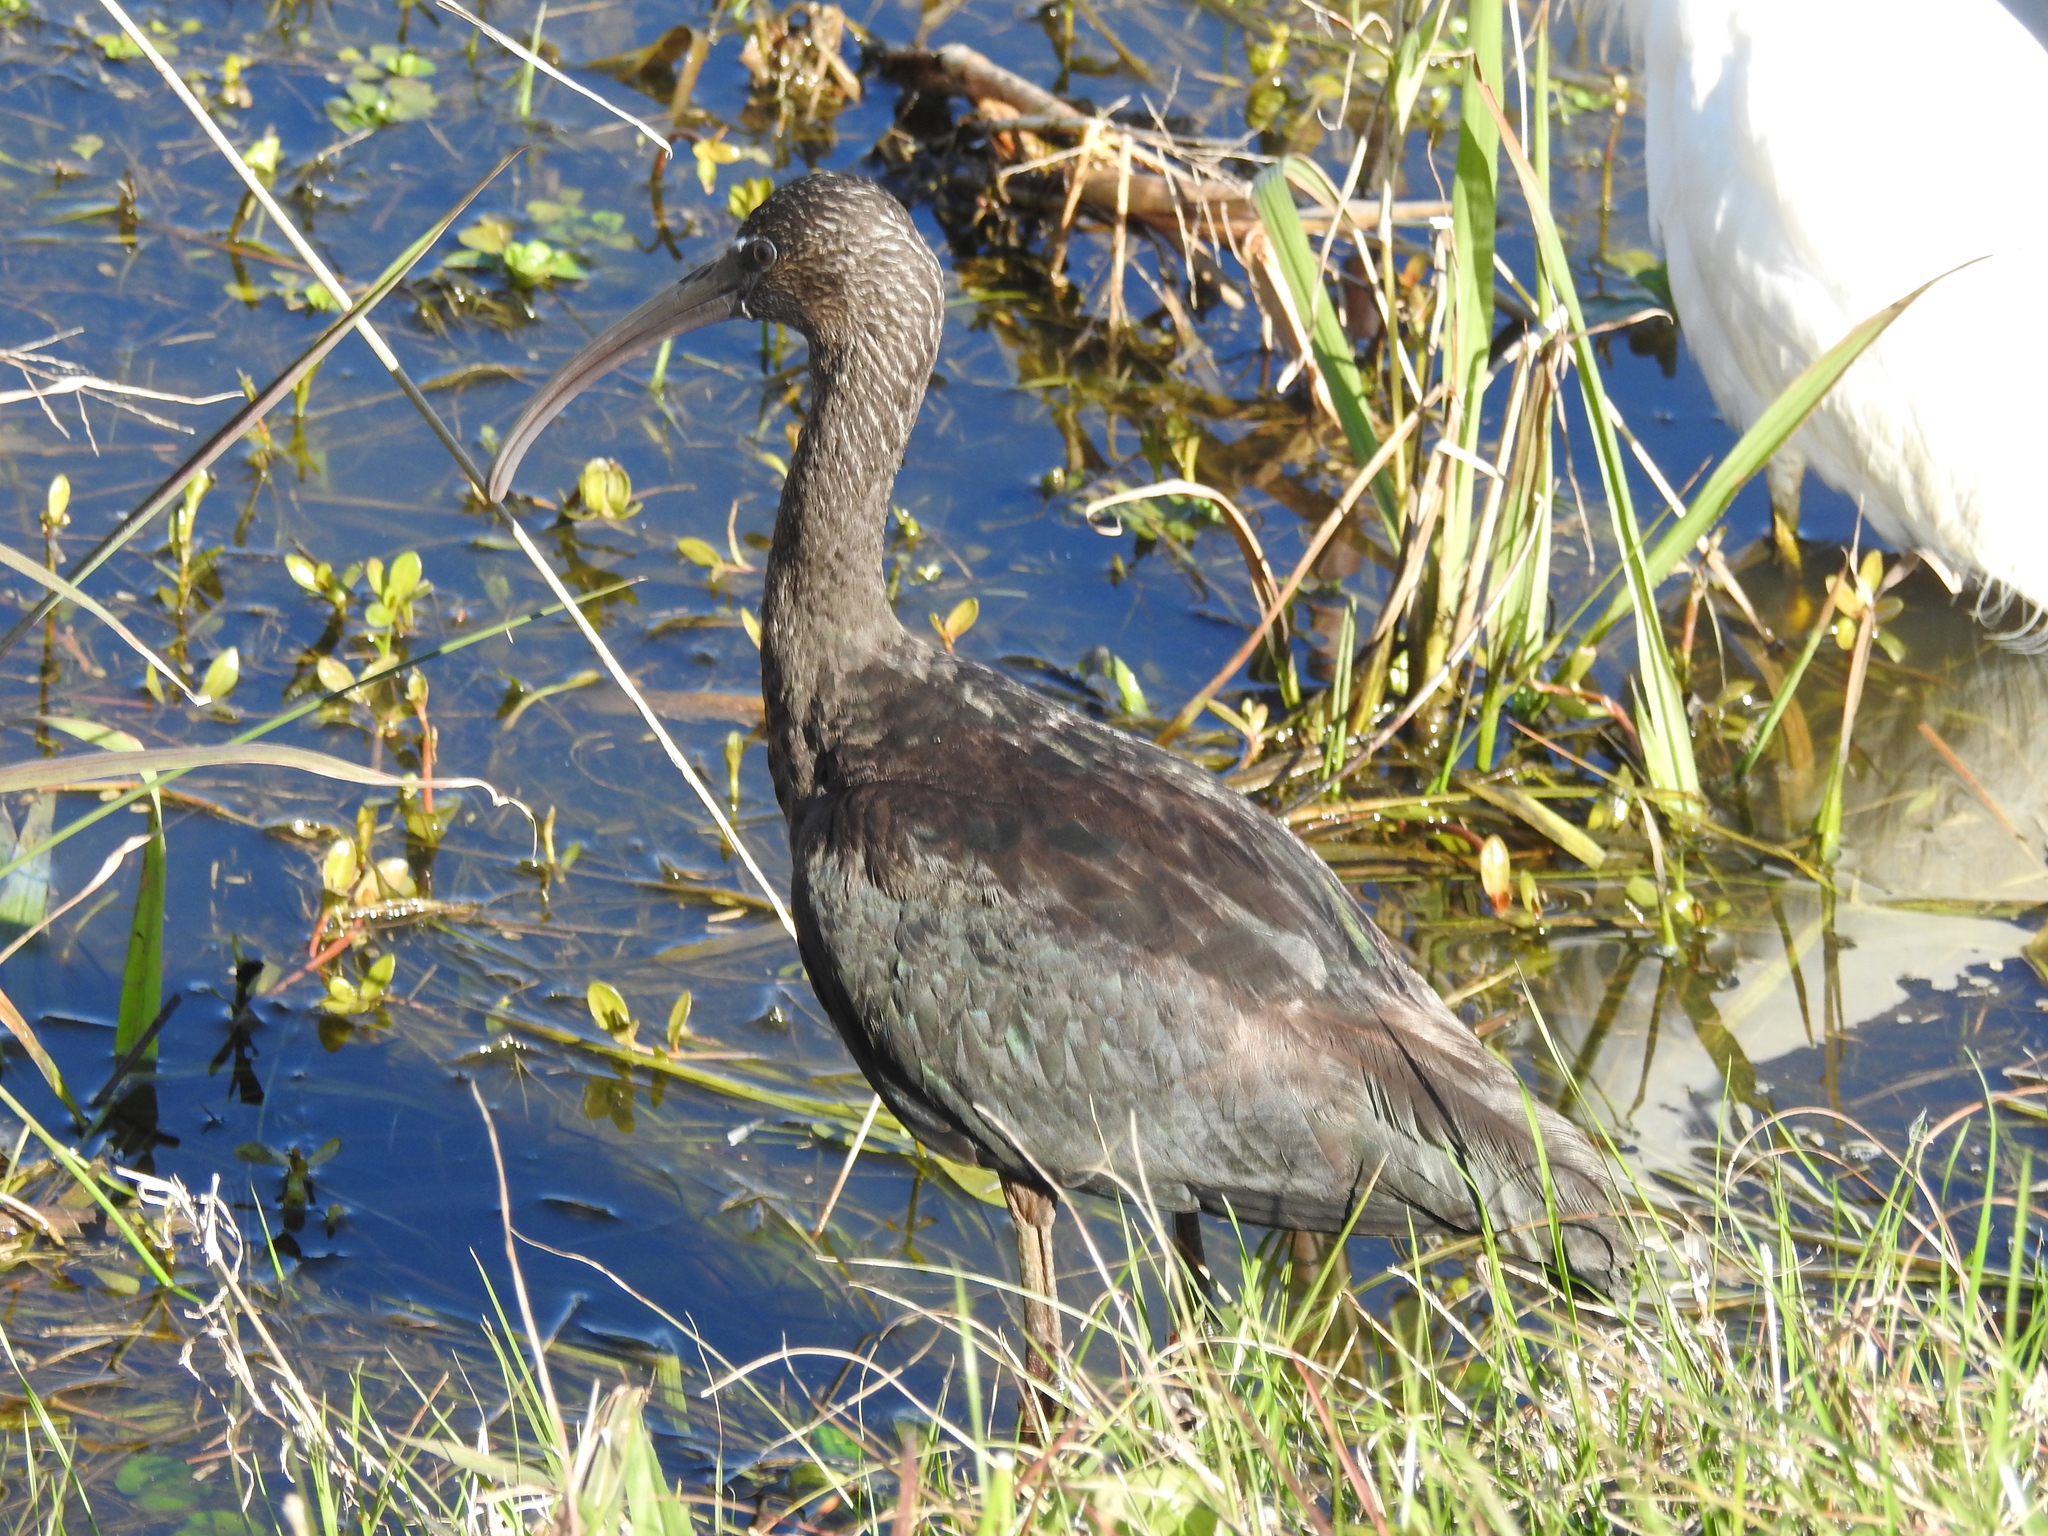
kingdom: Animalia
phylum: Chordata
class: Aves
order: Pelecaniformes
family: Threskiornithidae
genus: Plegadis
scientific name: Plegadis falcinellus
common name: Glossy ibis
